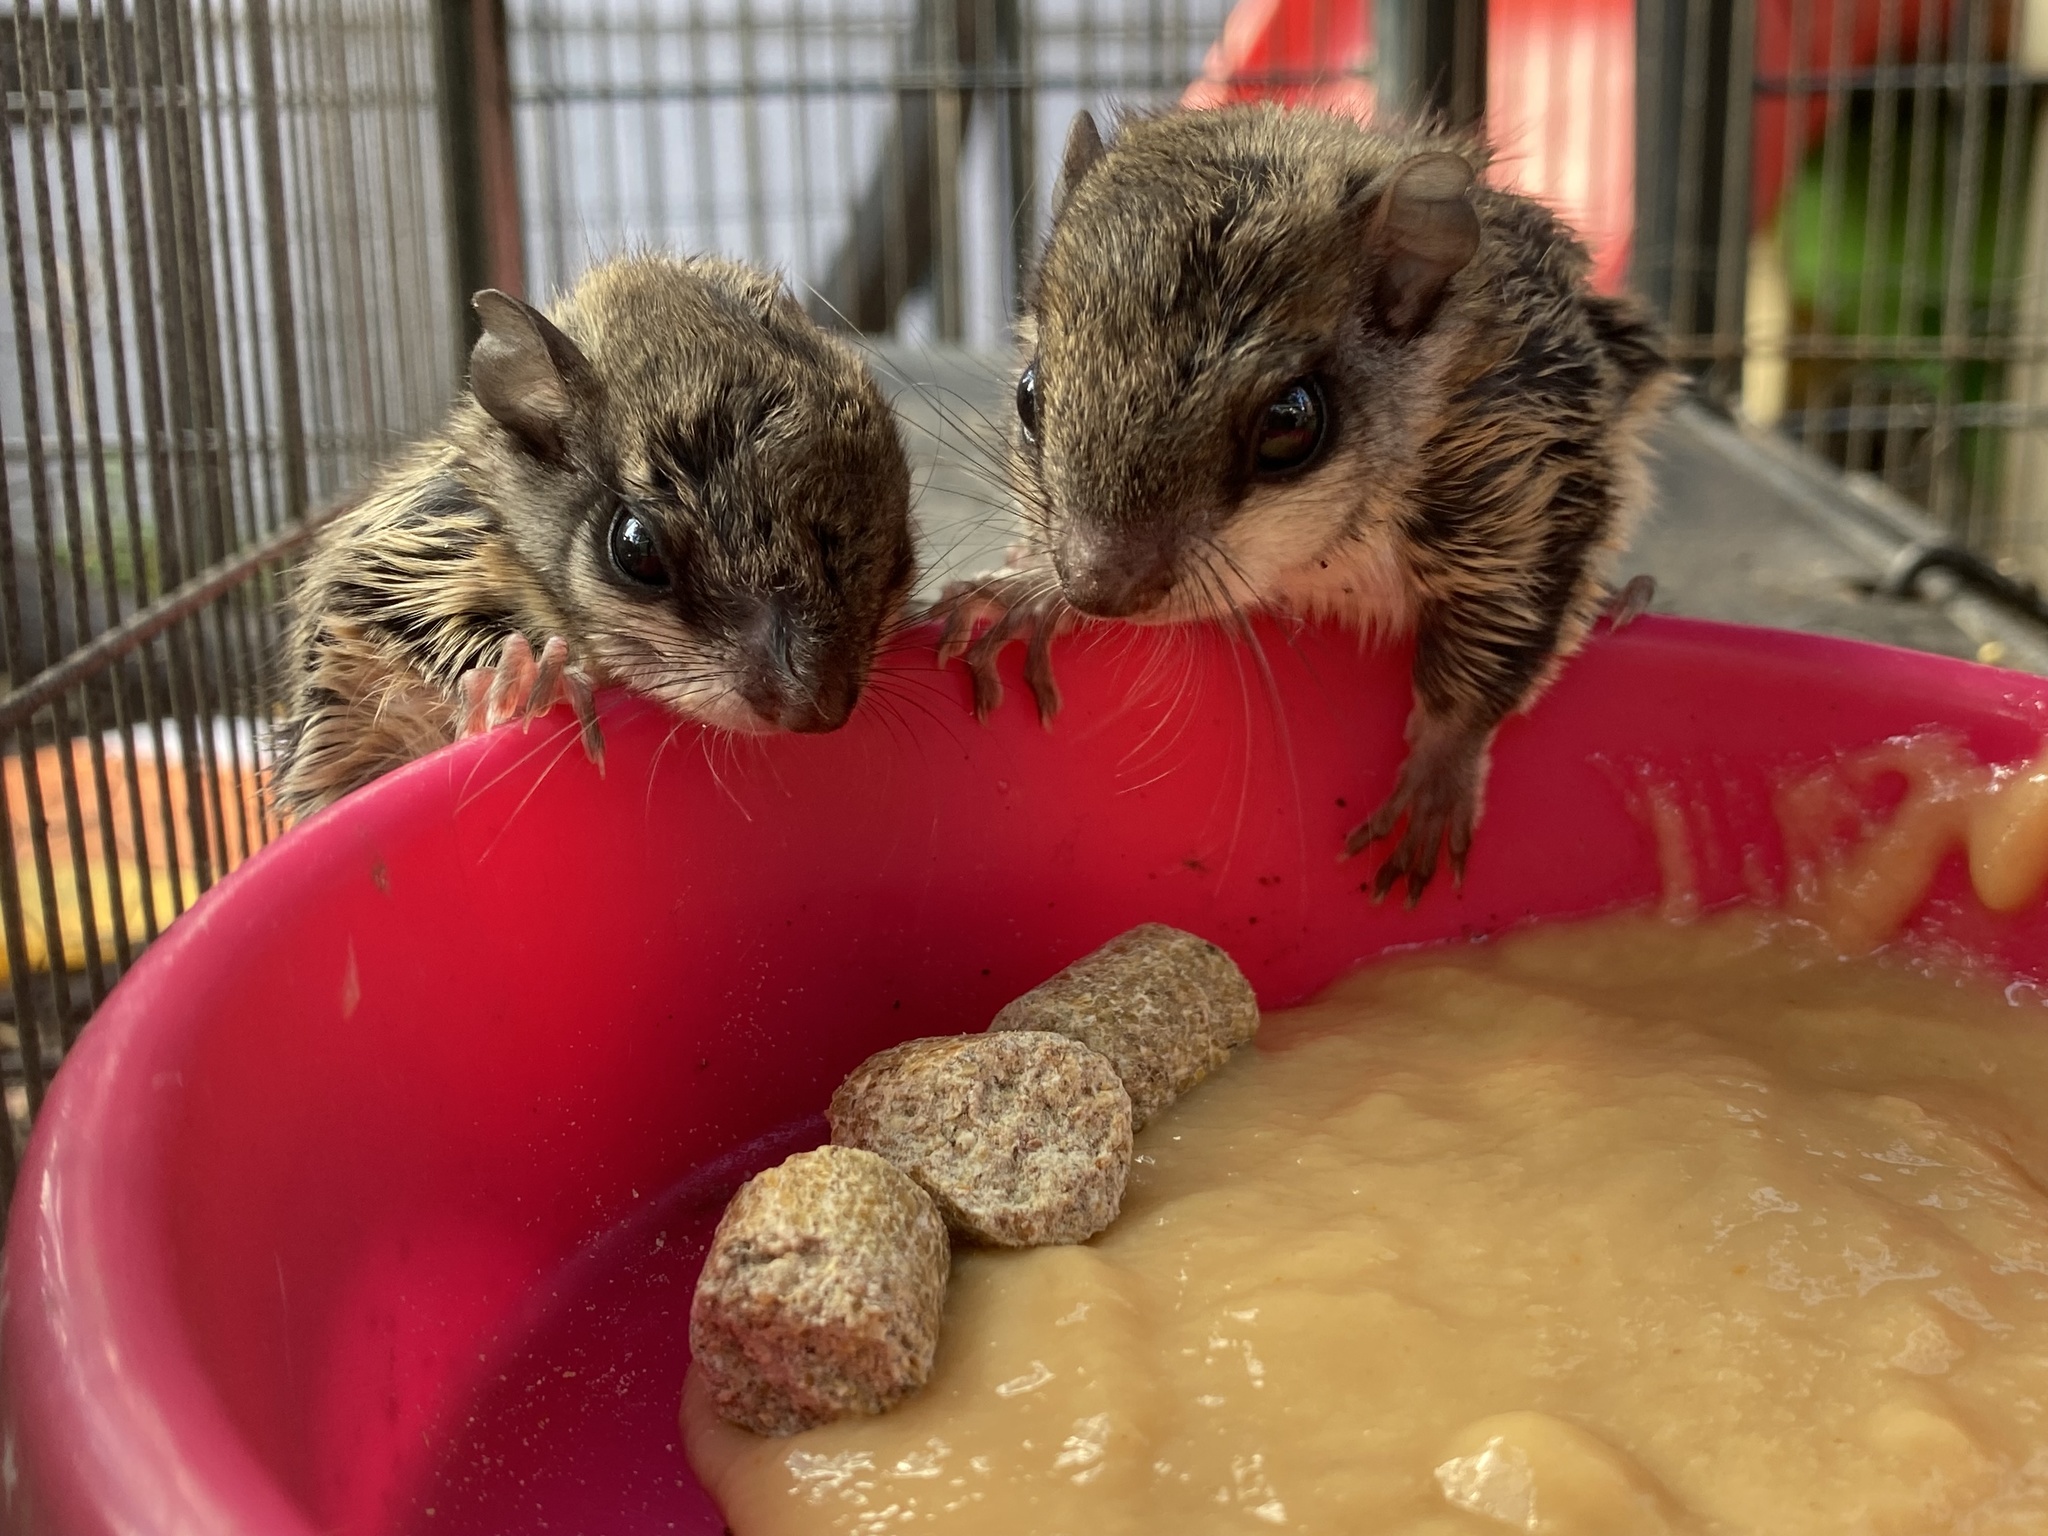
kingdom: Animalia
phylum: Chordata
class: Mammalia
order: Rodentia
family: Sciuridae
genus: Glaucomys
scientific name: Glaucomys volans
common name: Southern flying squirrel
